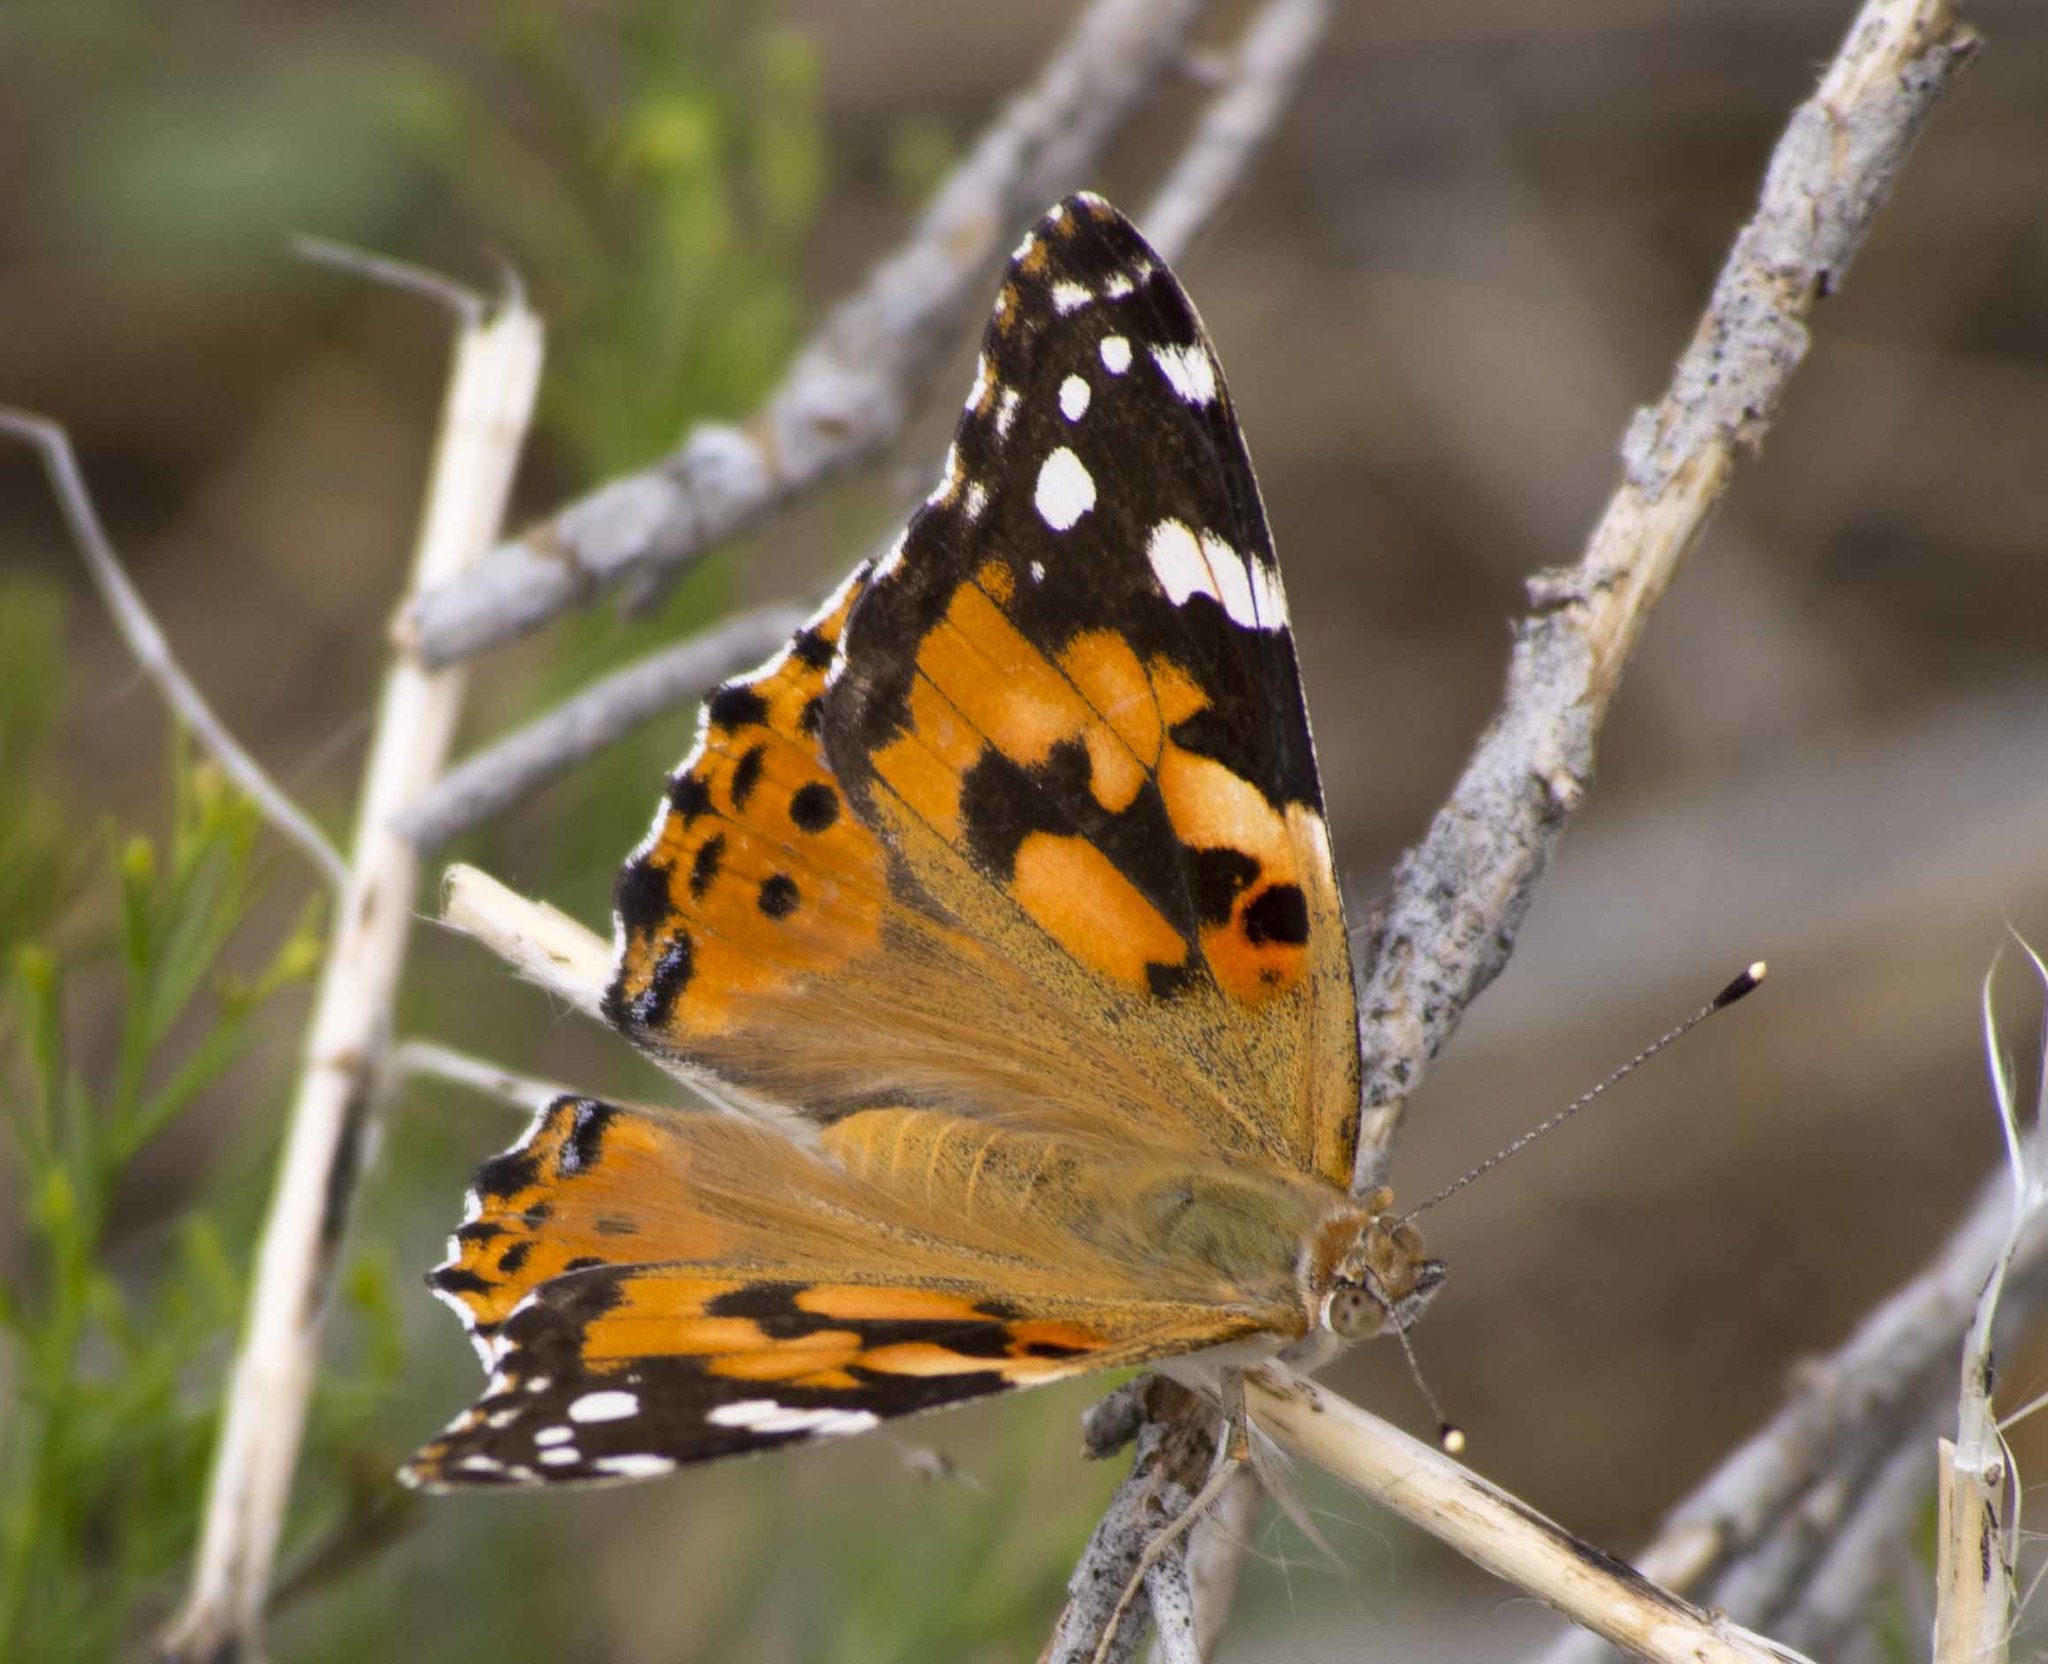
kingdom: Animalia
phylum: Arthropoda
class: Insecta
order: Lepidoptera
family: Nymphalidae
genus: Vanessa
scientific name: Vanessa cardui
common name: Painted lady
